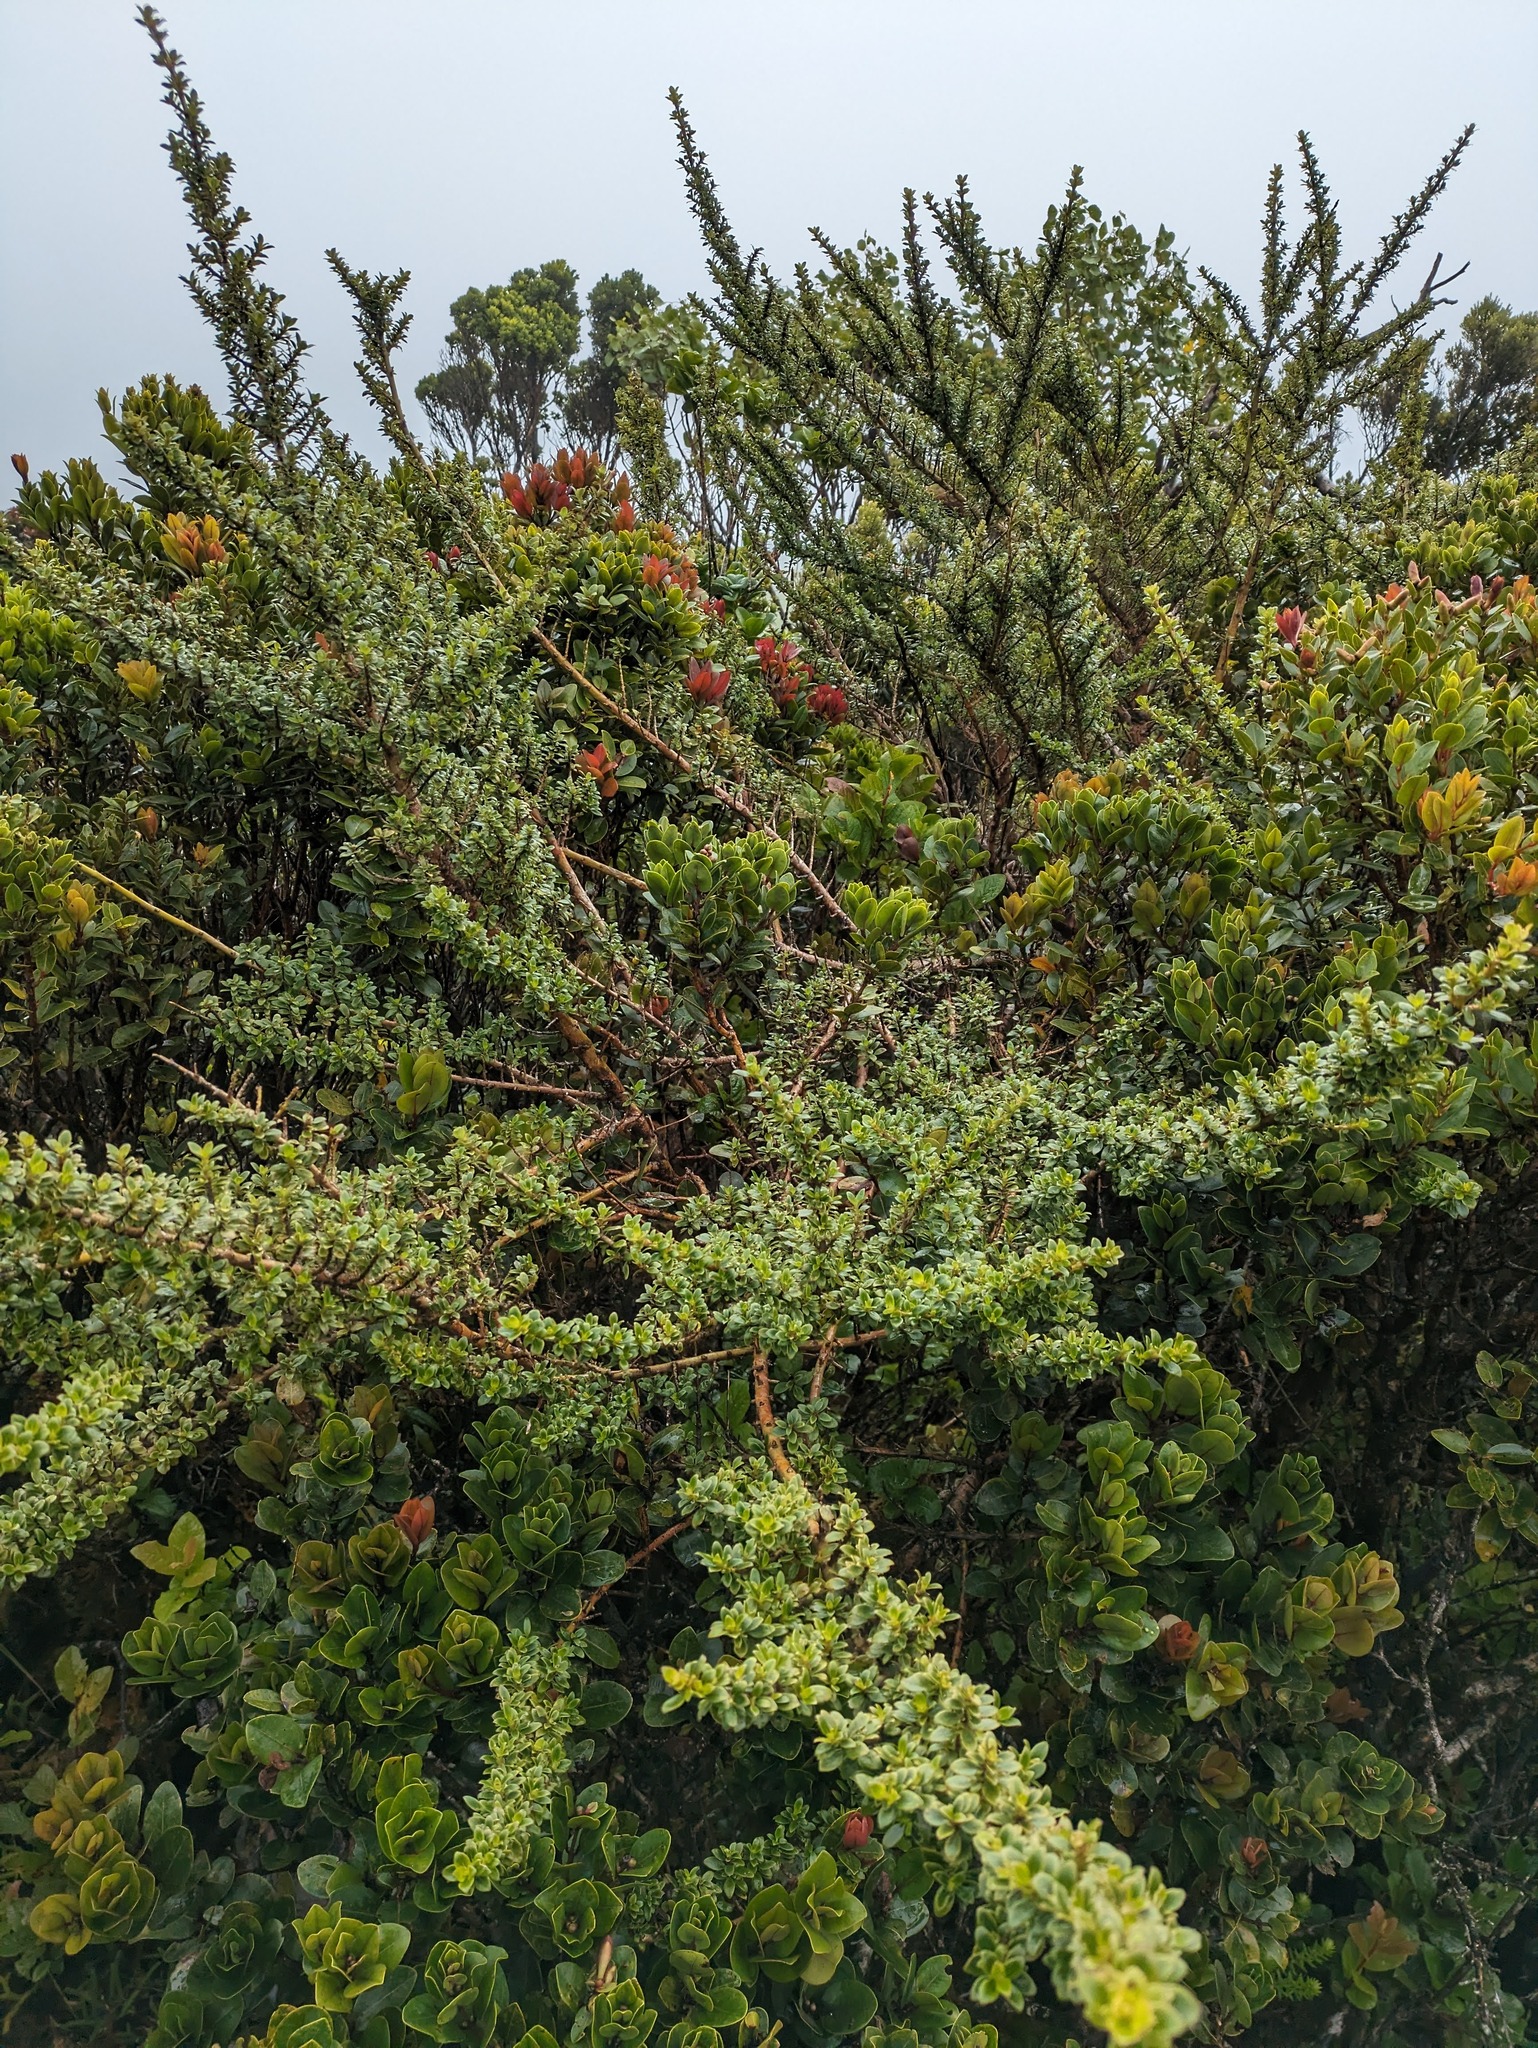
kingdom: Plantae
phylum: Tracheophyta
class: Magnoliopsida
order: Gentianales
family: Rubiaceae
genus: Coprosma
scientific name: Coprosma elliptica
